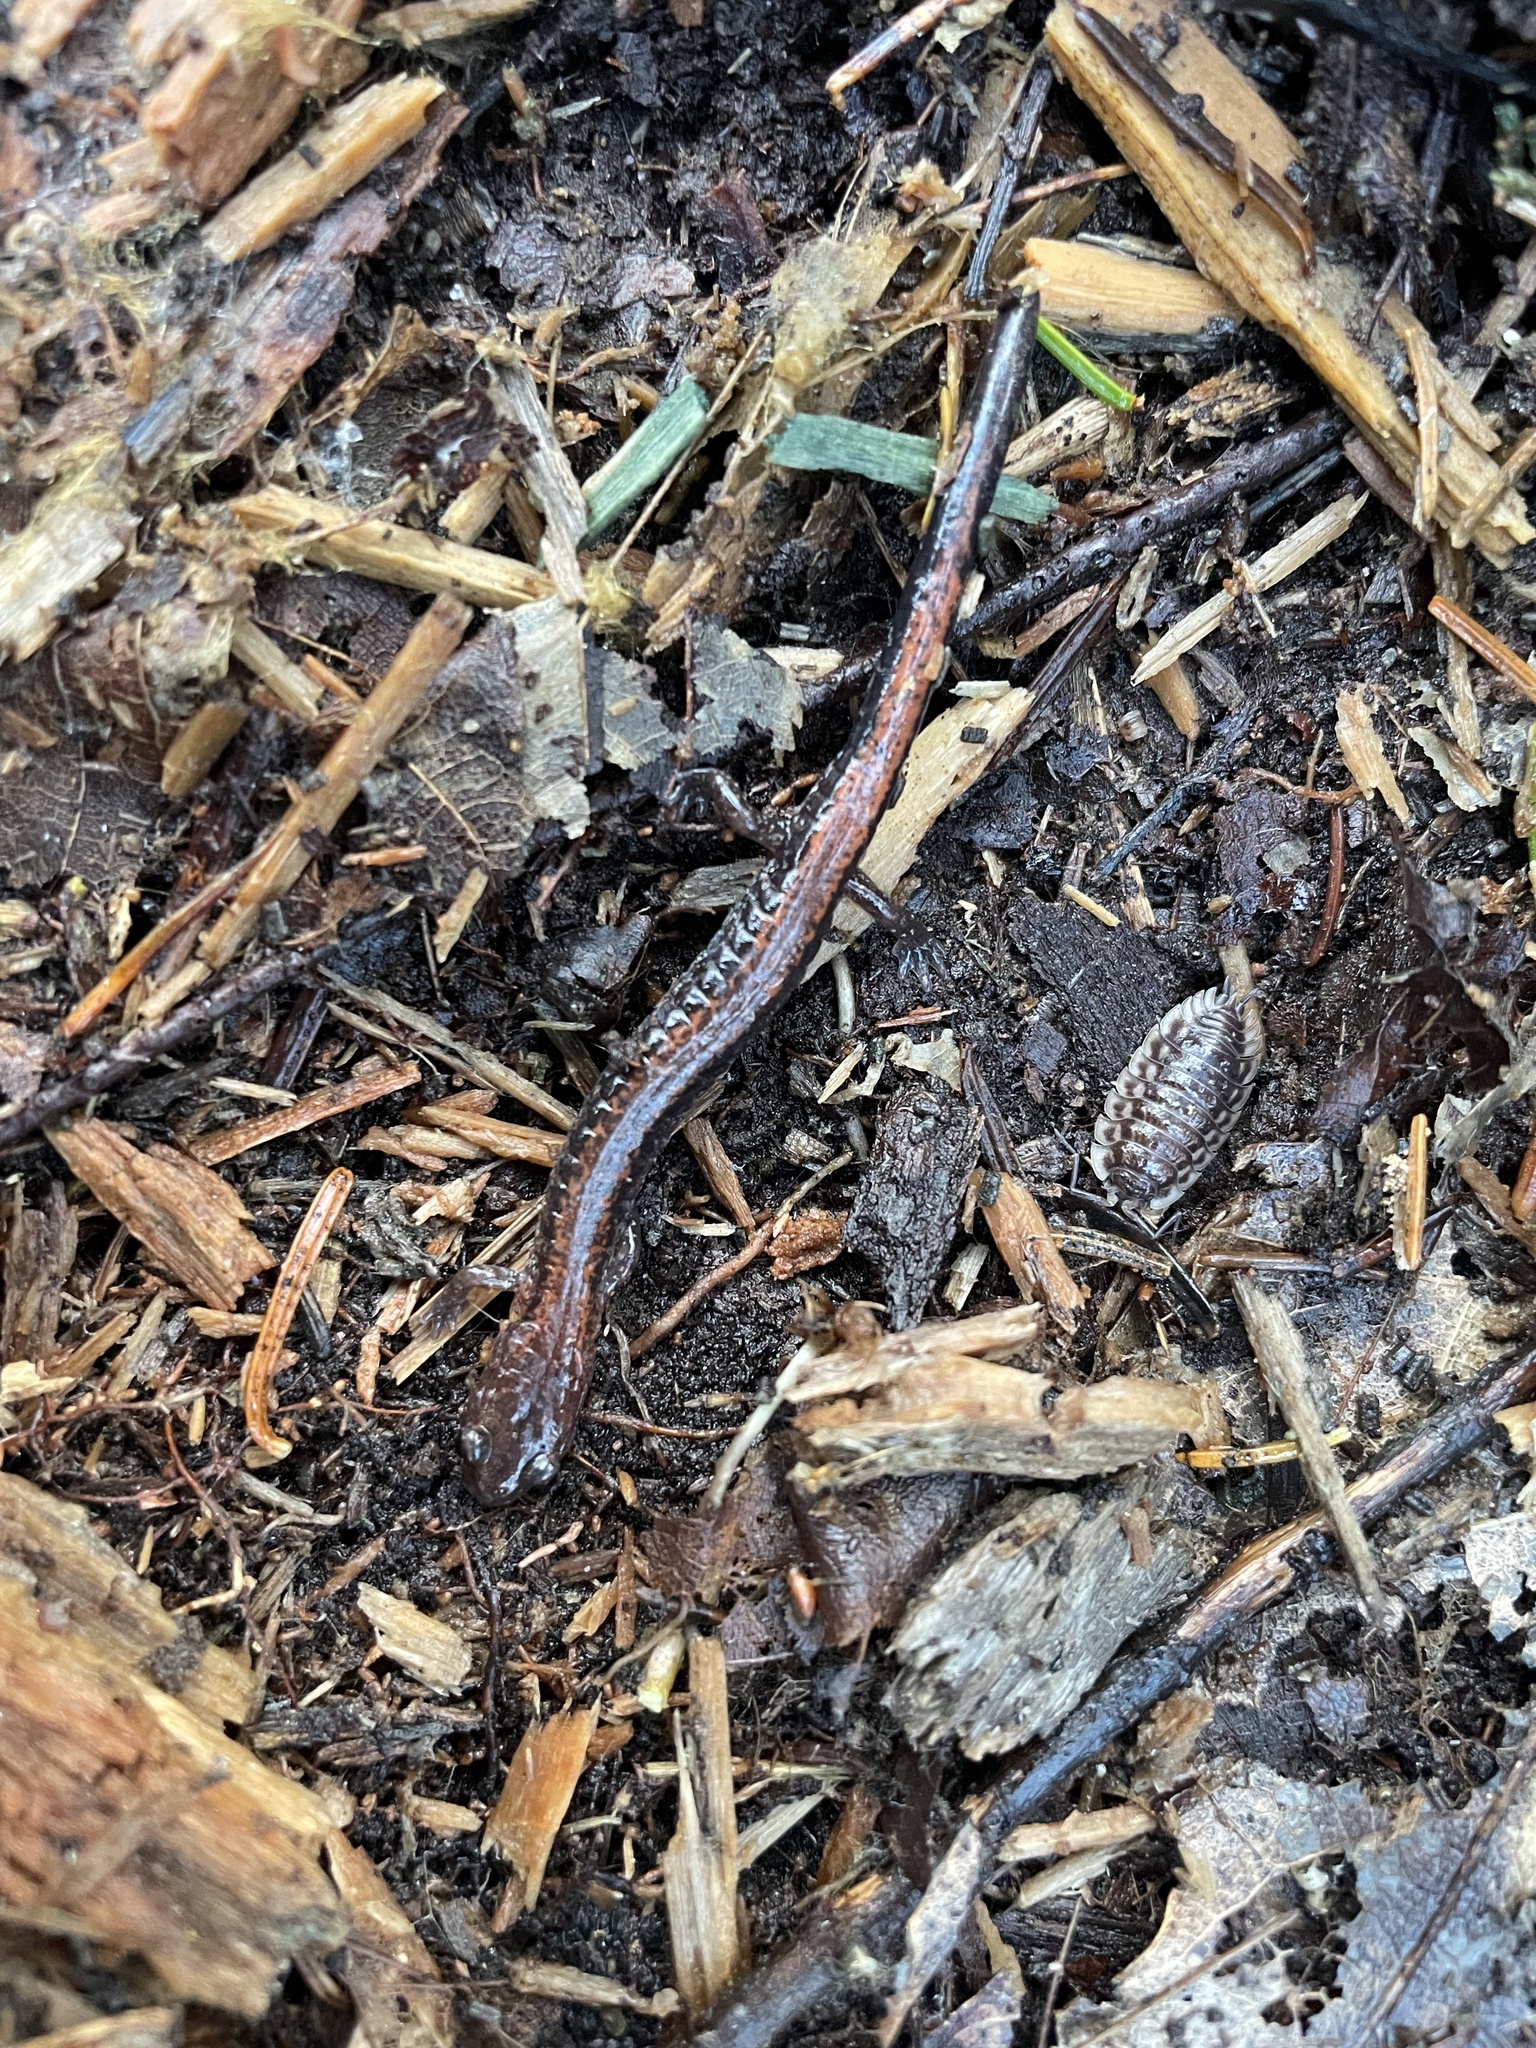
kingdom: Animalia
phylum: Chordata
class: Amphibia
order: Caudata
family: Plethodontidae
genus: Plethodon
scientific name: Plethodon cinereus
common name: Redback salamander
